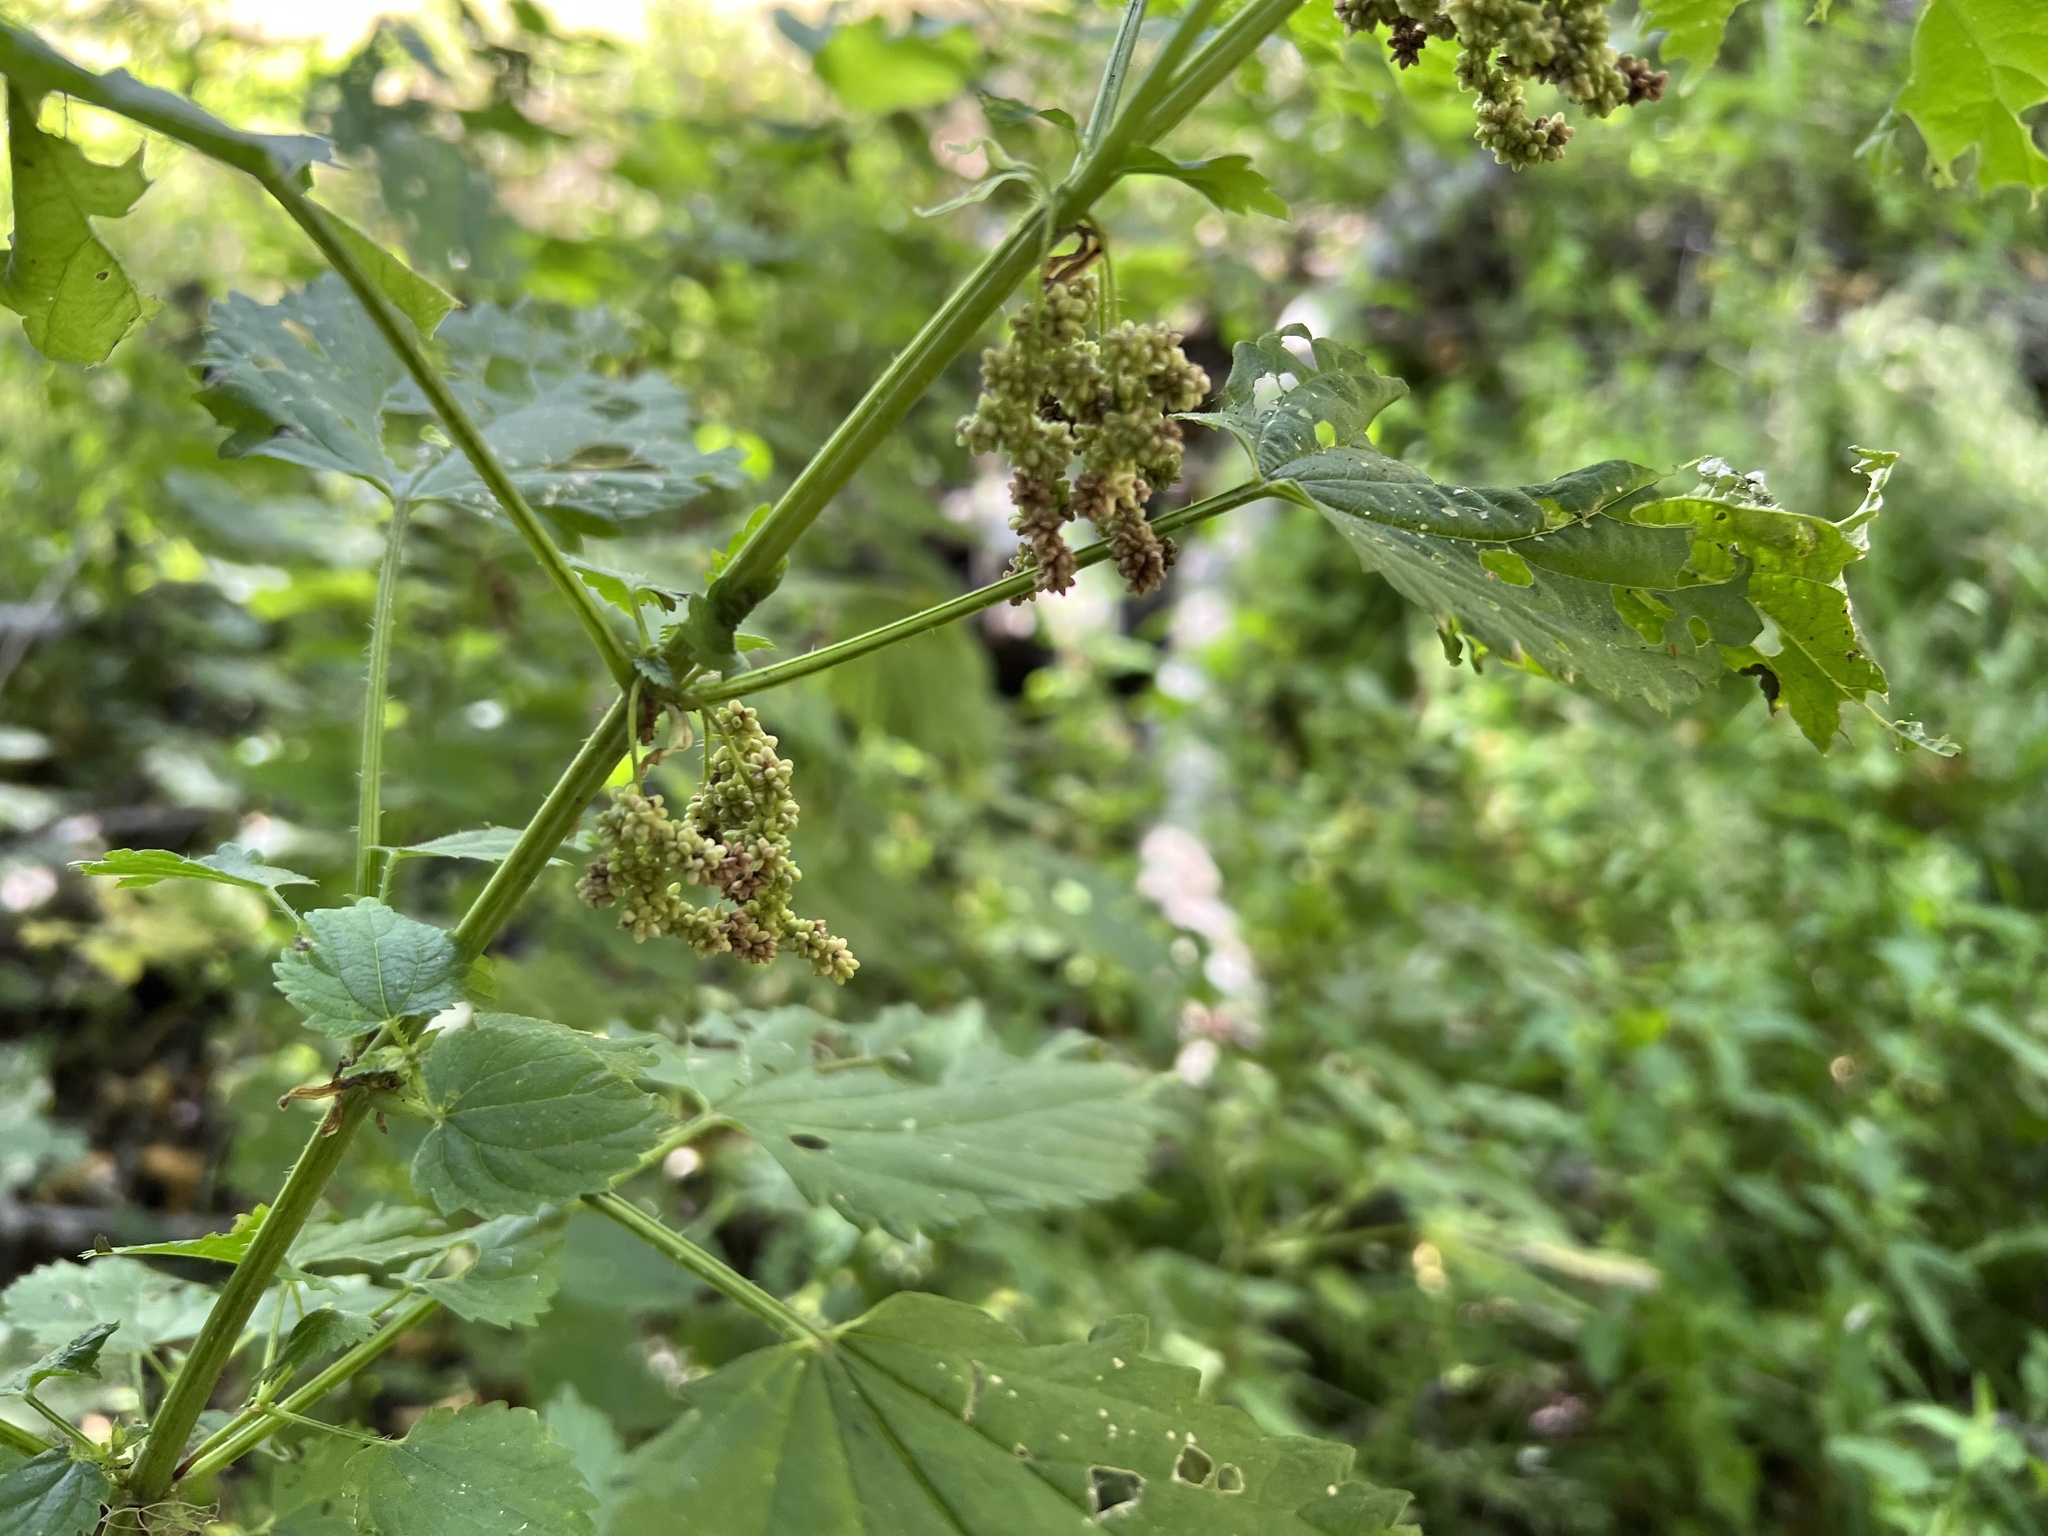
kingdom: Plantae
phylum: Tracheophyta
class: Magnoliopsida
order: Rosales
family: Urticaceae
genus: Urtica
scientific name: Urtica dioica
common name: Common nettle
